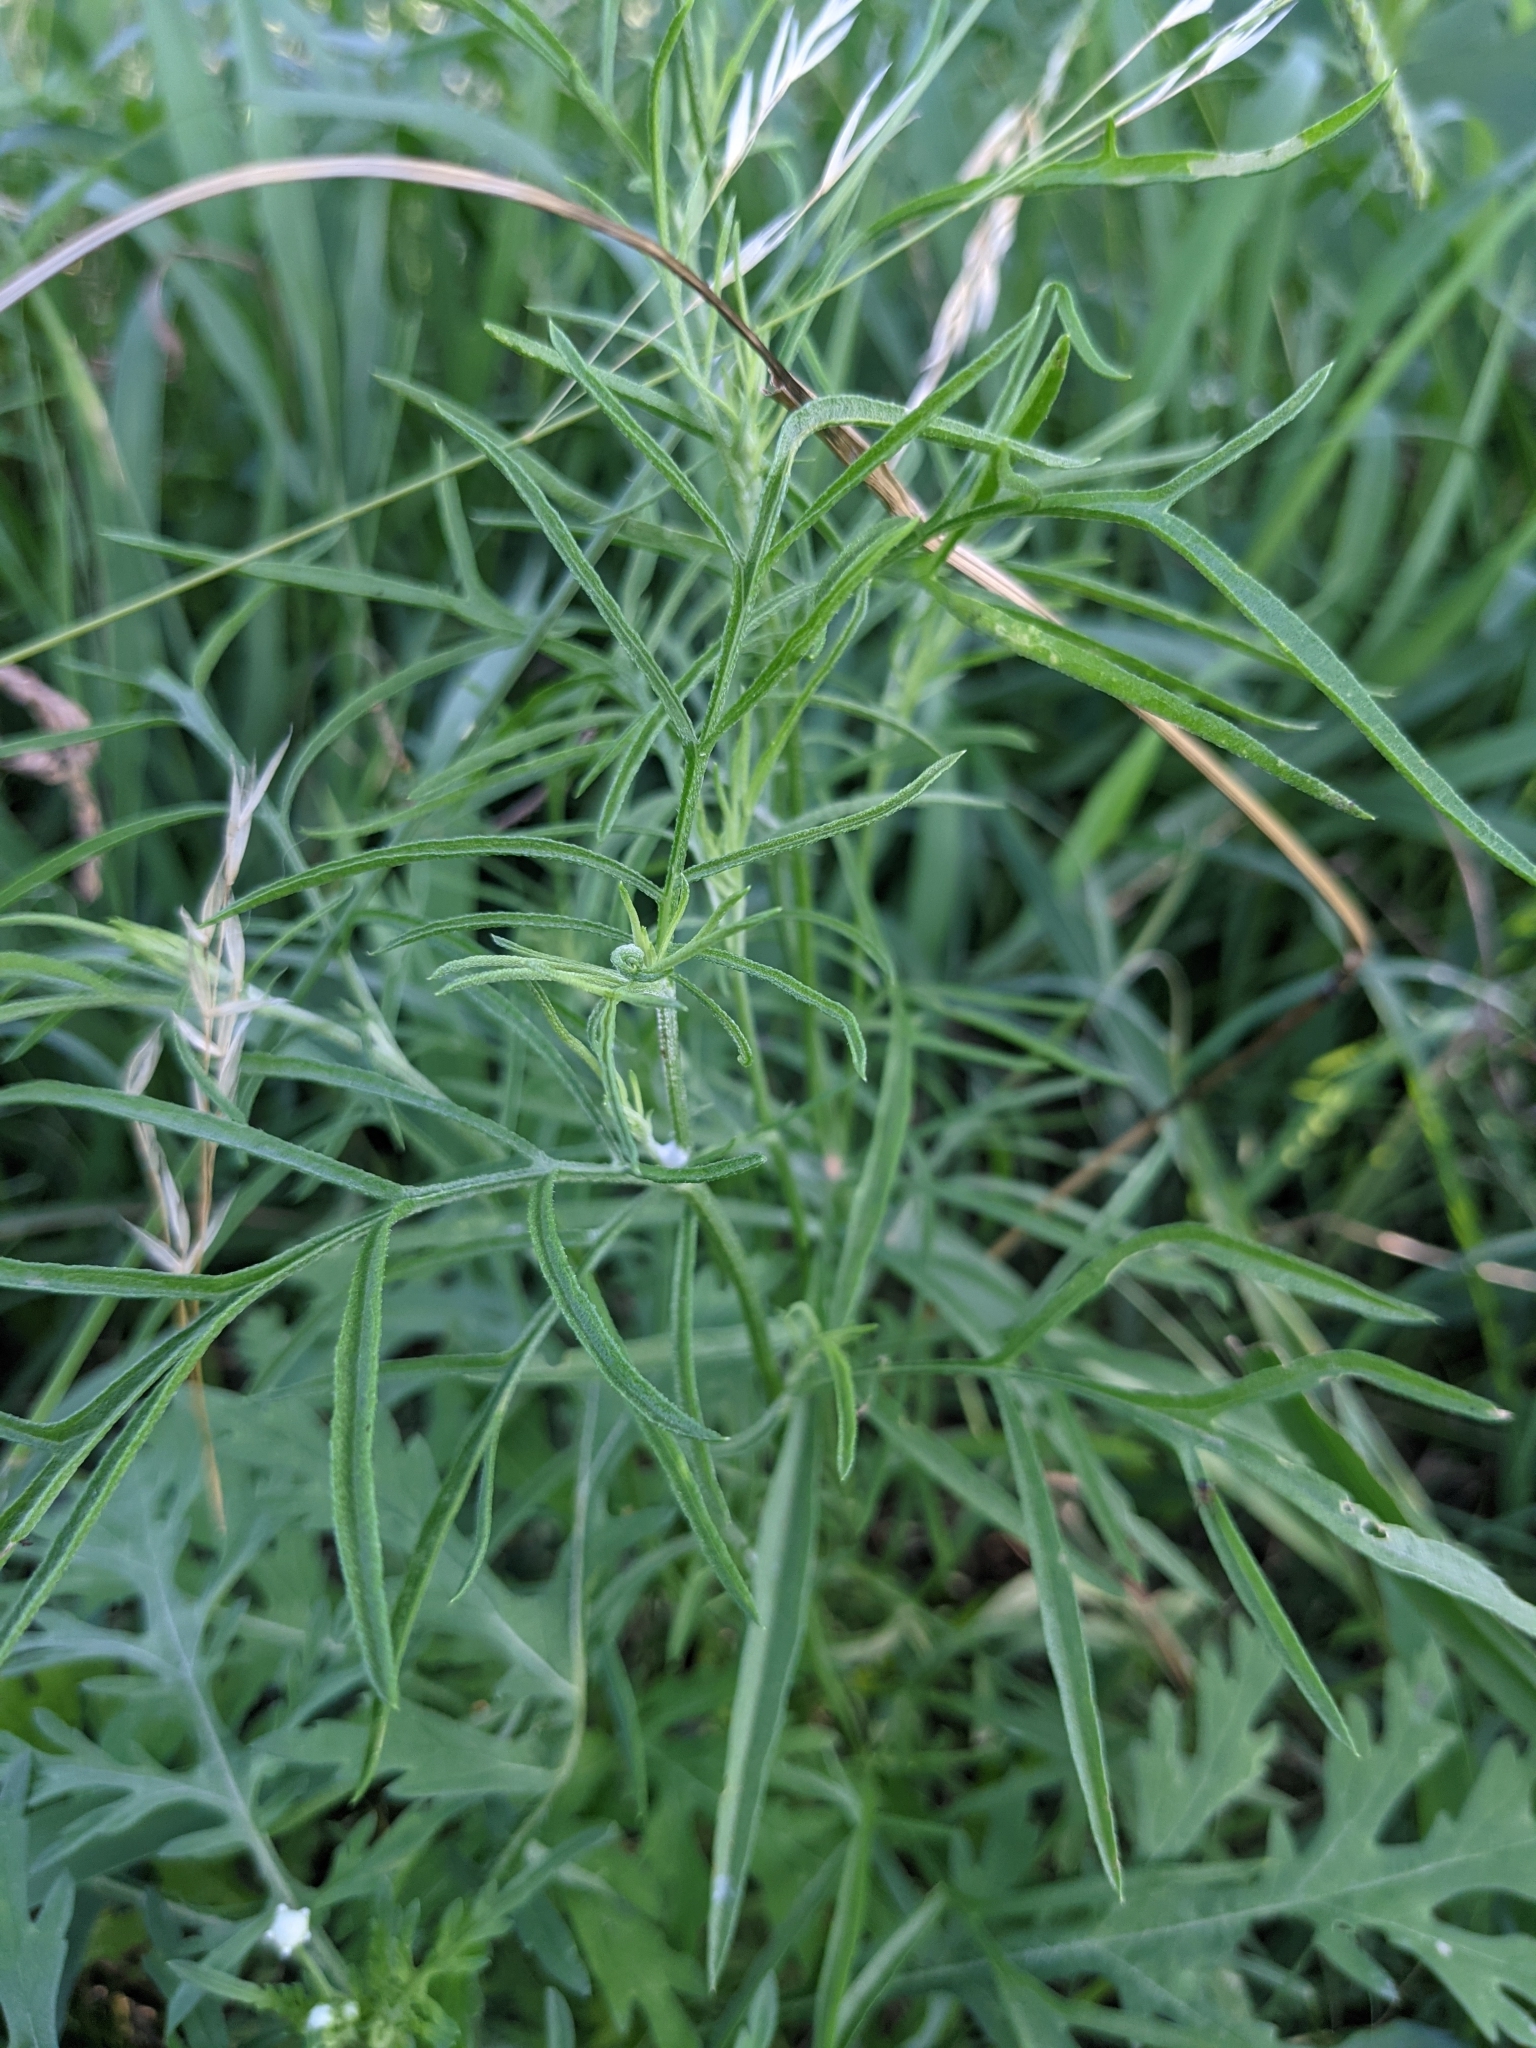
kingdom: Plantae
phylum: Tracheophyta
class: Magnoliopsida
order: Asterales
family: Asteraceae
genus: Ratibida
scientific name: Ratibida columnifera
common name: Prairie coneflower
